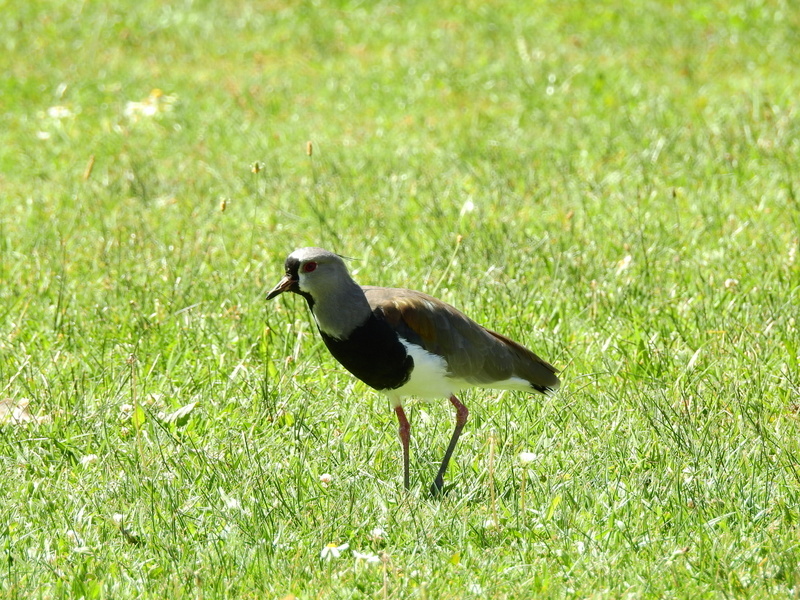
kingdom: Animalia
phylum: Chordata
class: Aves
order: Charadriiformes
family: Charadriidae
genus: Vanellus
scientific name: Vanellus chilensis
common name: Southern lapwing
